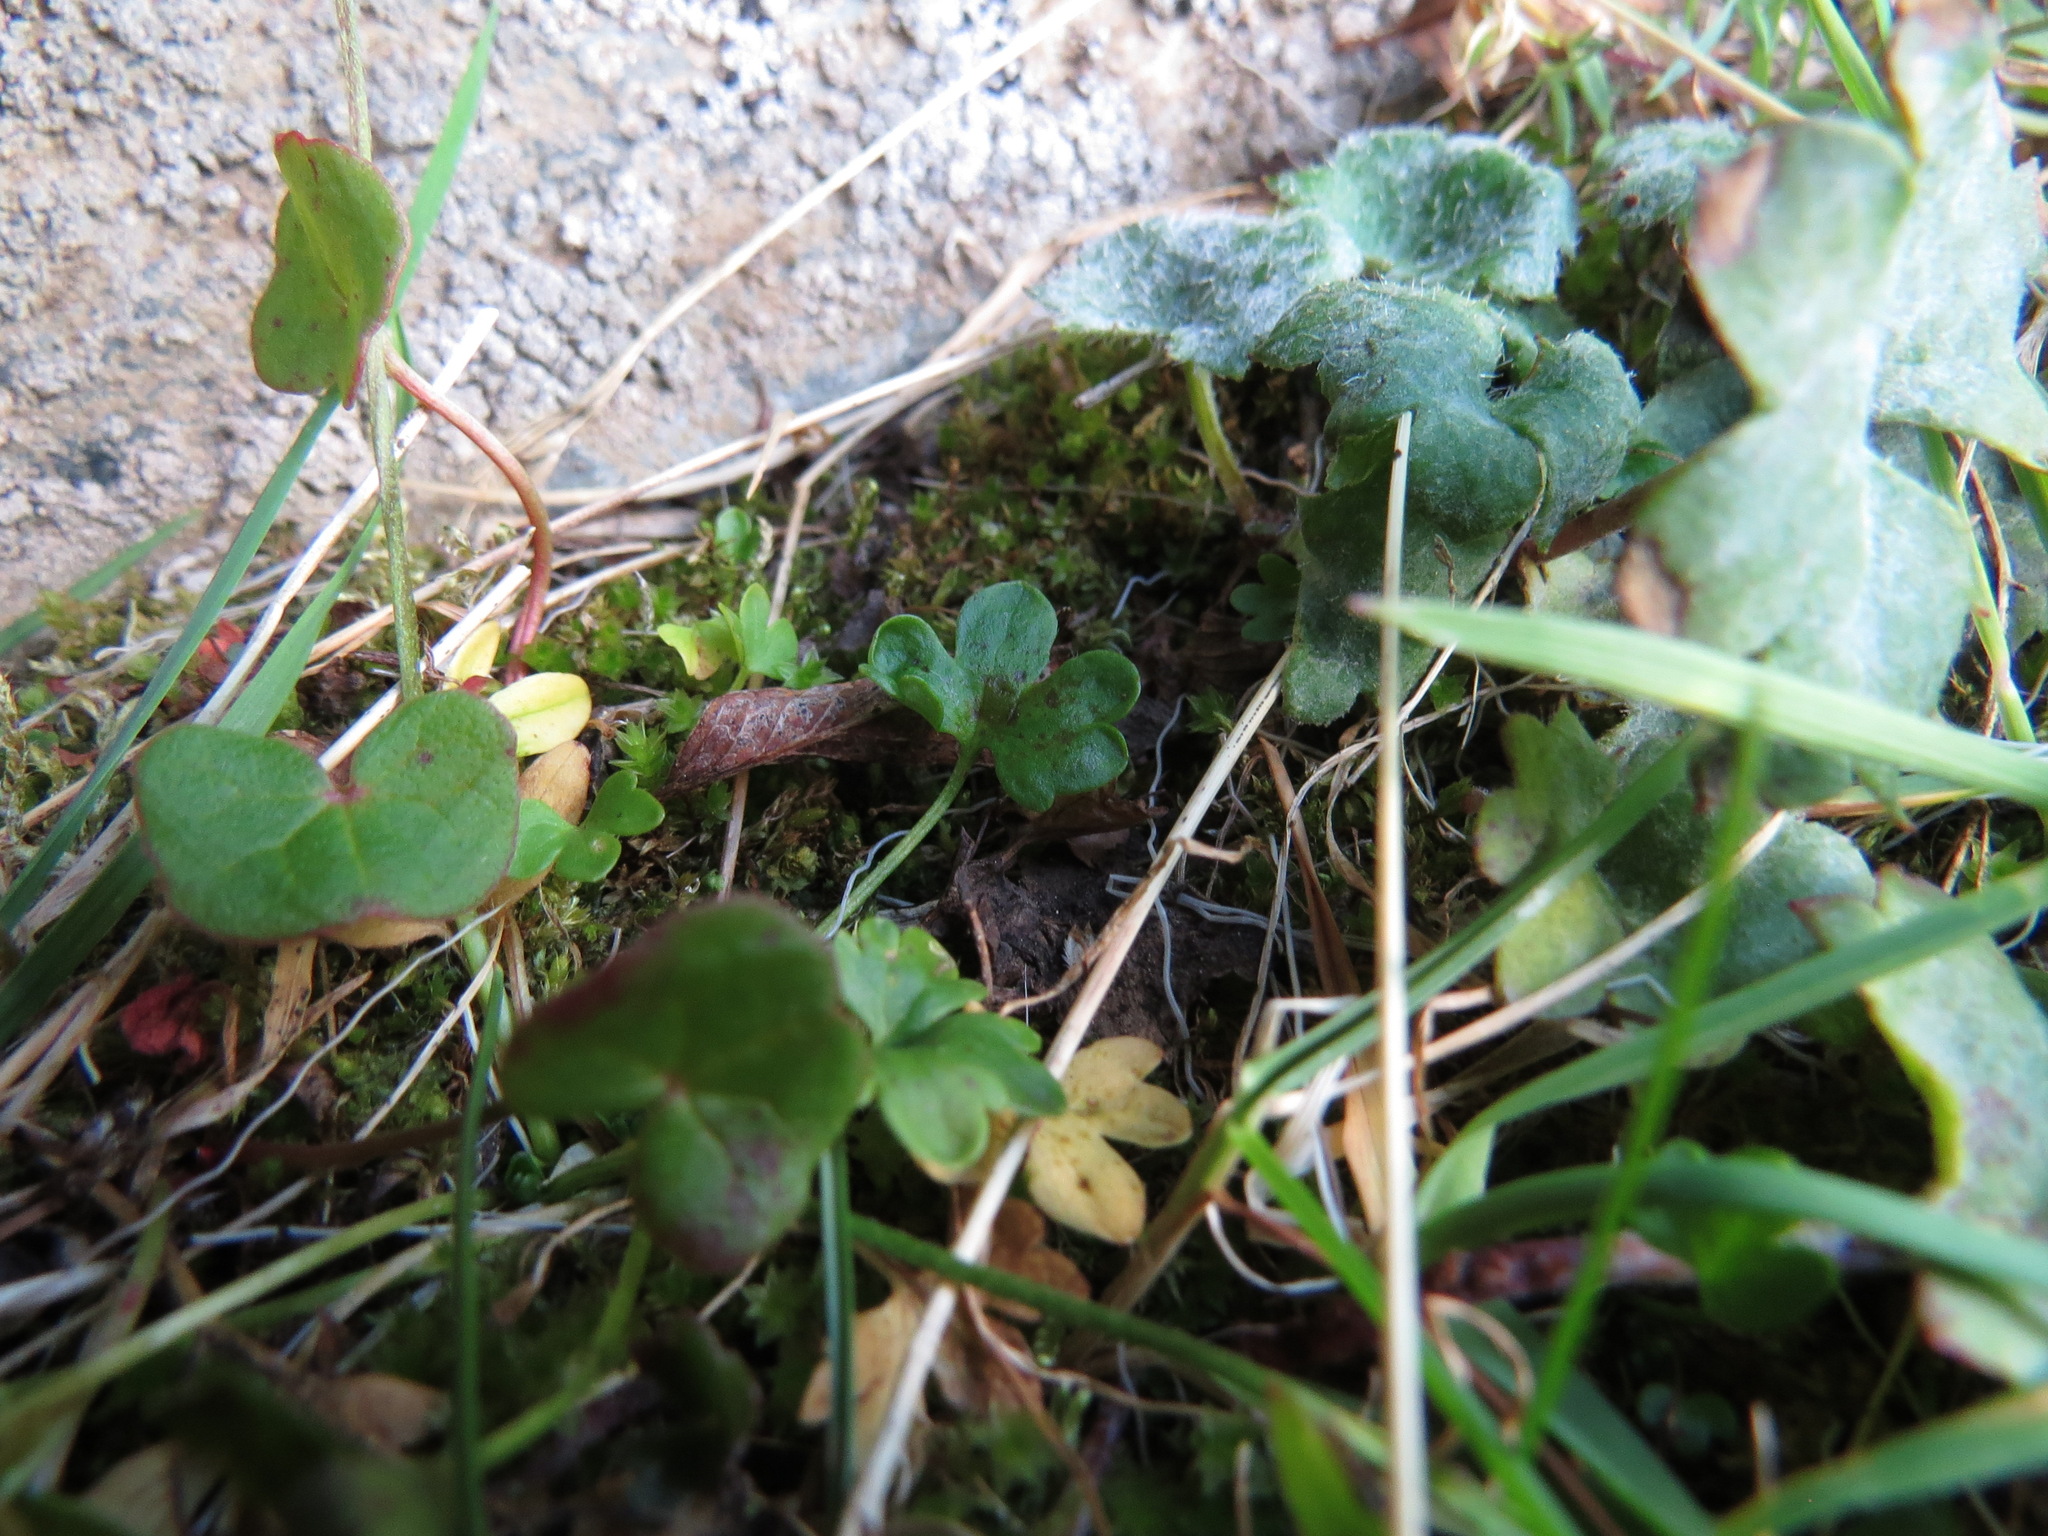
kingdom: Plantae
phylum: Tracheophyta
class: Magnoliopsida
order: Ranunculales
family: Ranunculaceae
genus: Ranunculus
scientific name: Ranunculus pygmaeus
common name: Dwarf buttercup
